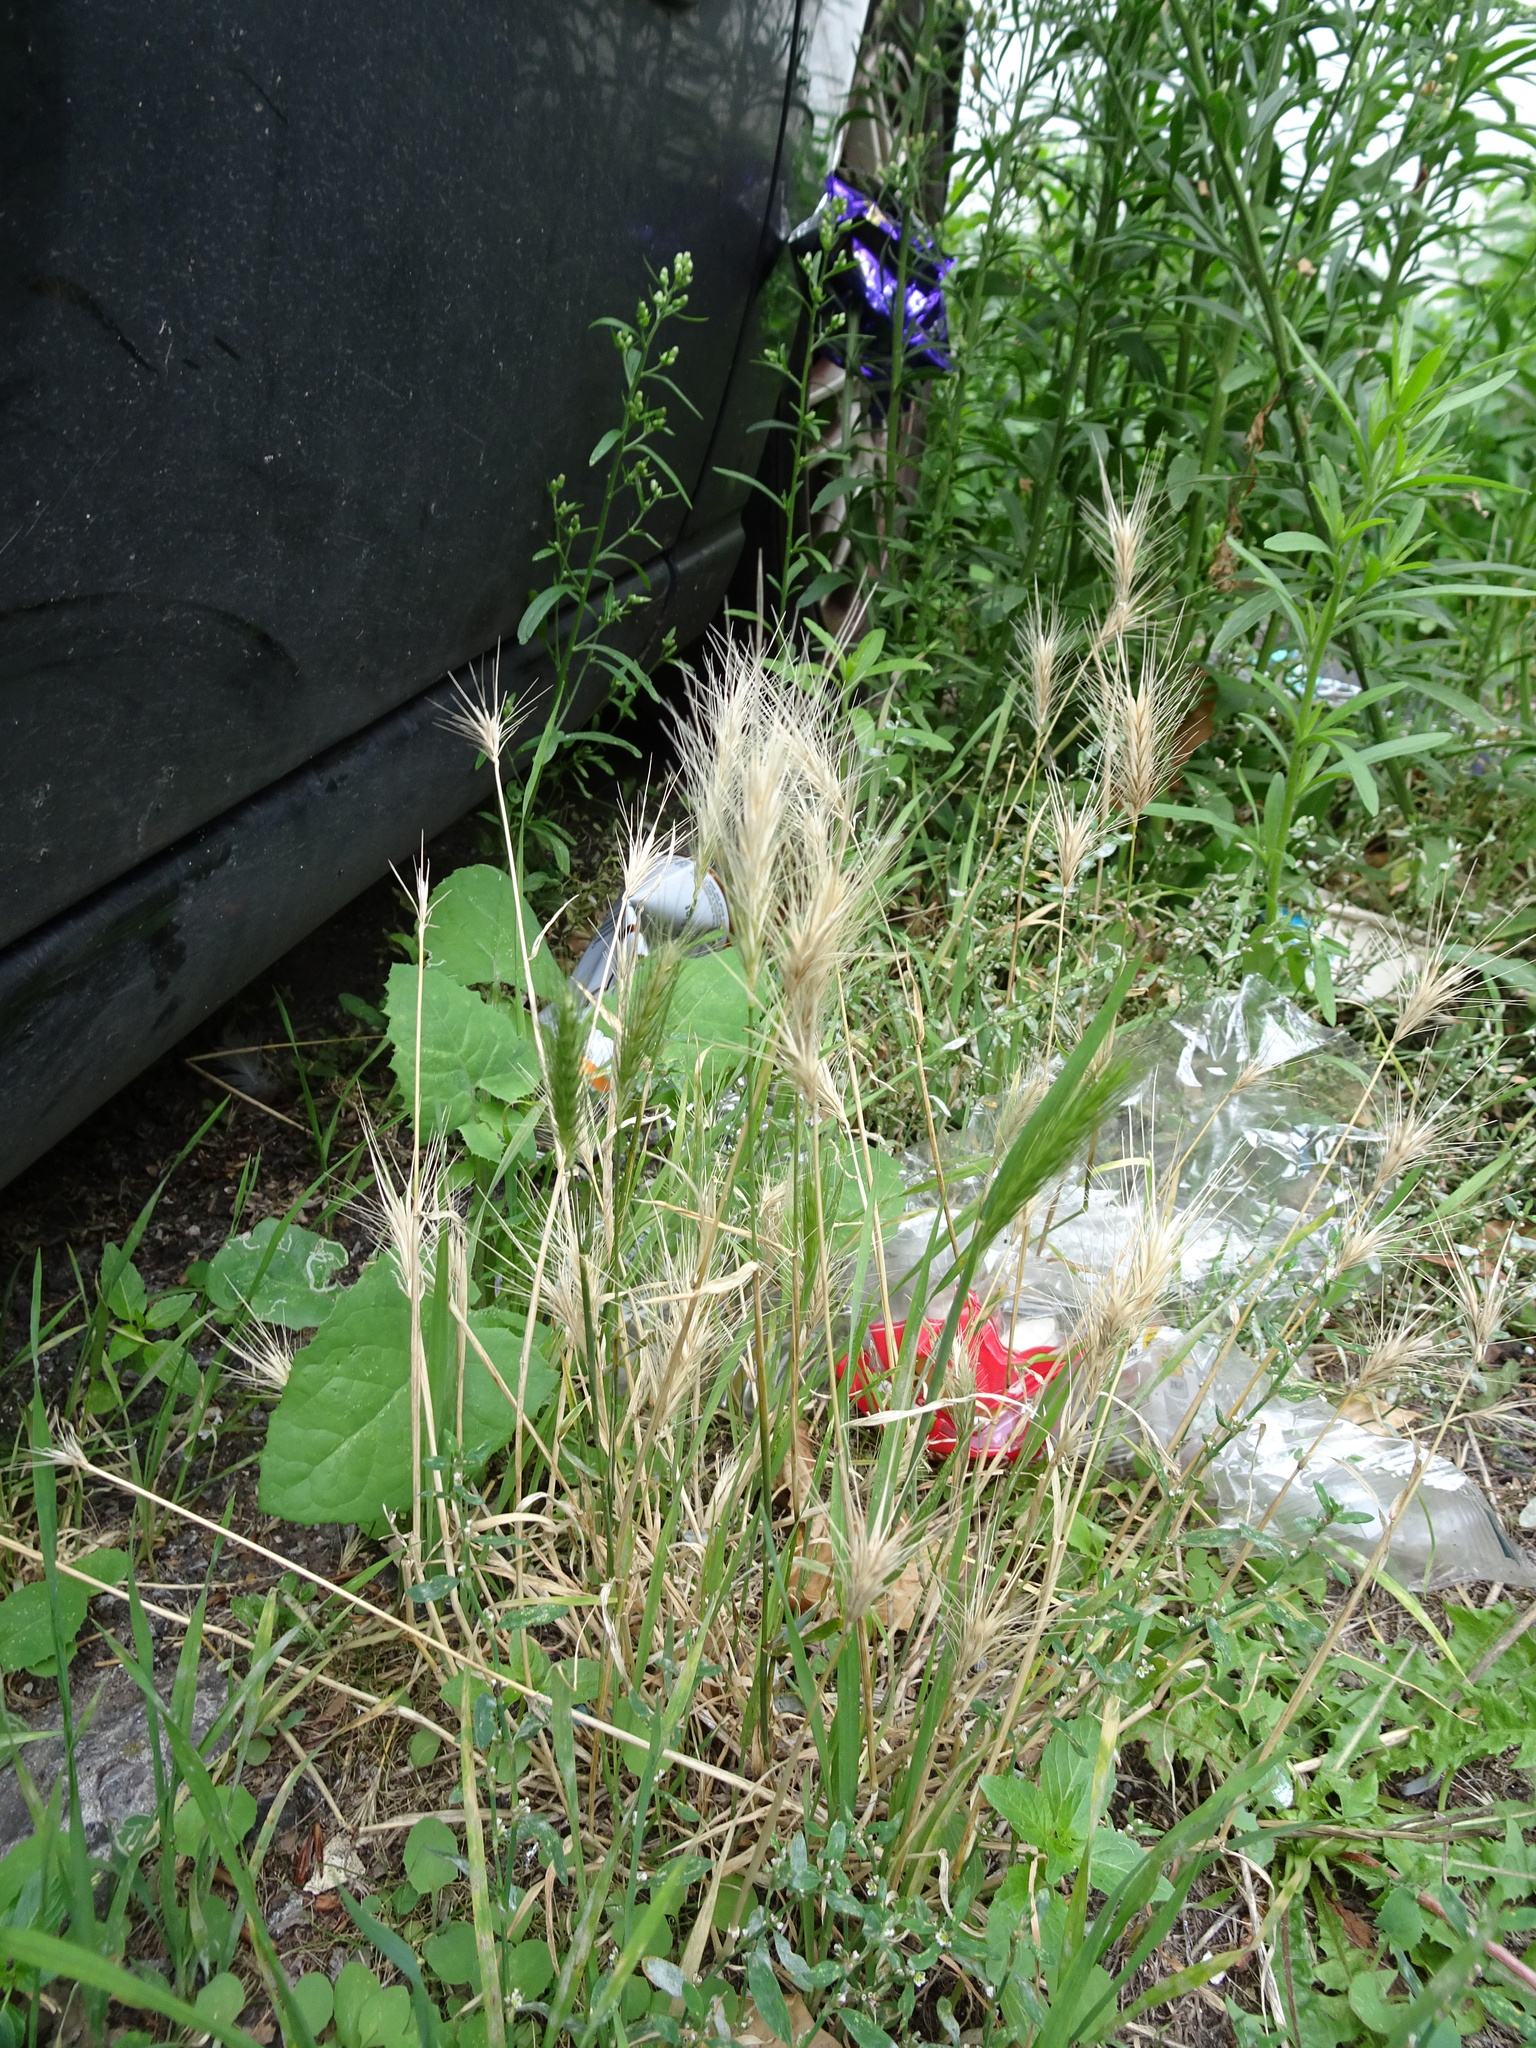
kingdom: Plantae
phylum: Tracheophyta
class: Liliopsida
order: Poales
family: Poaceae
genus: Hordeum
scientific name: Hordeum murinum
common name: Wall barley
